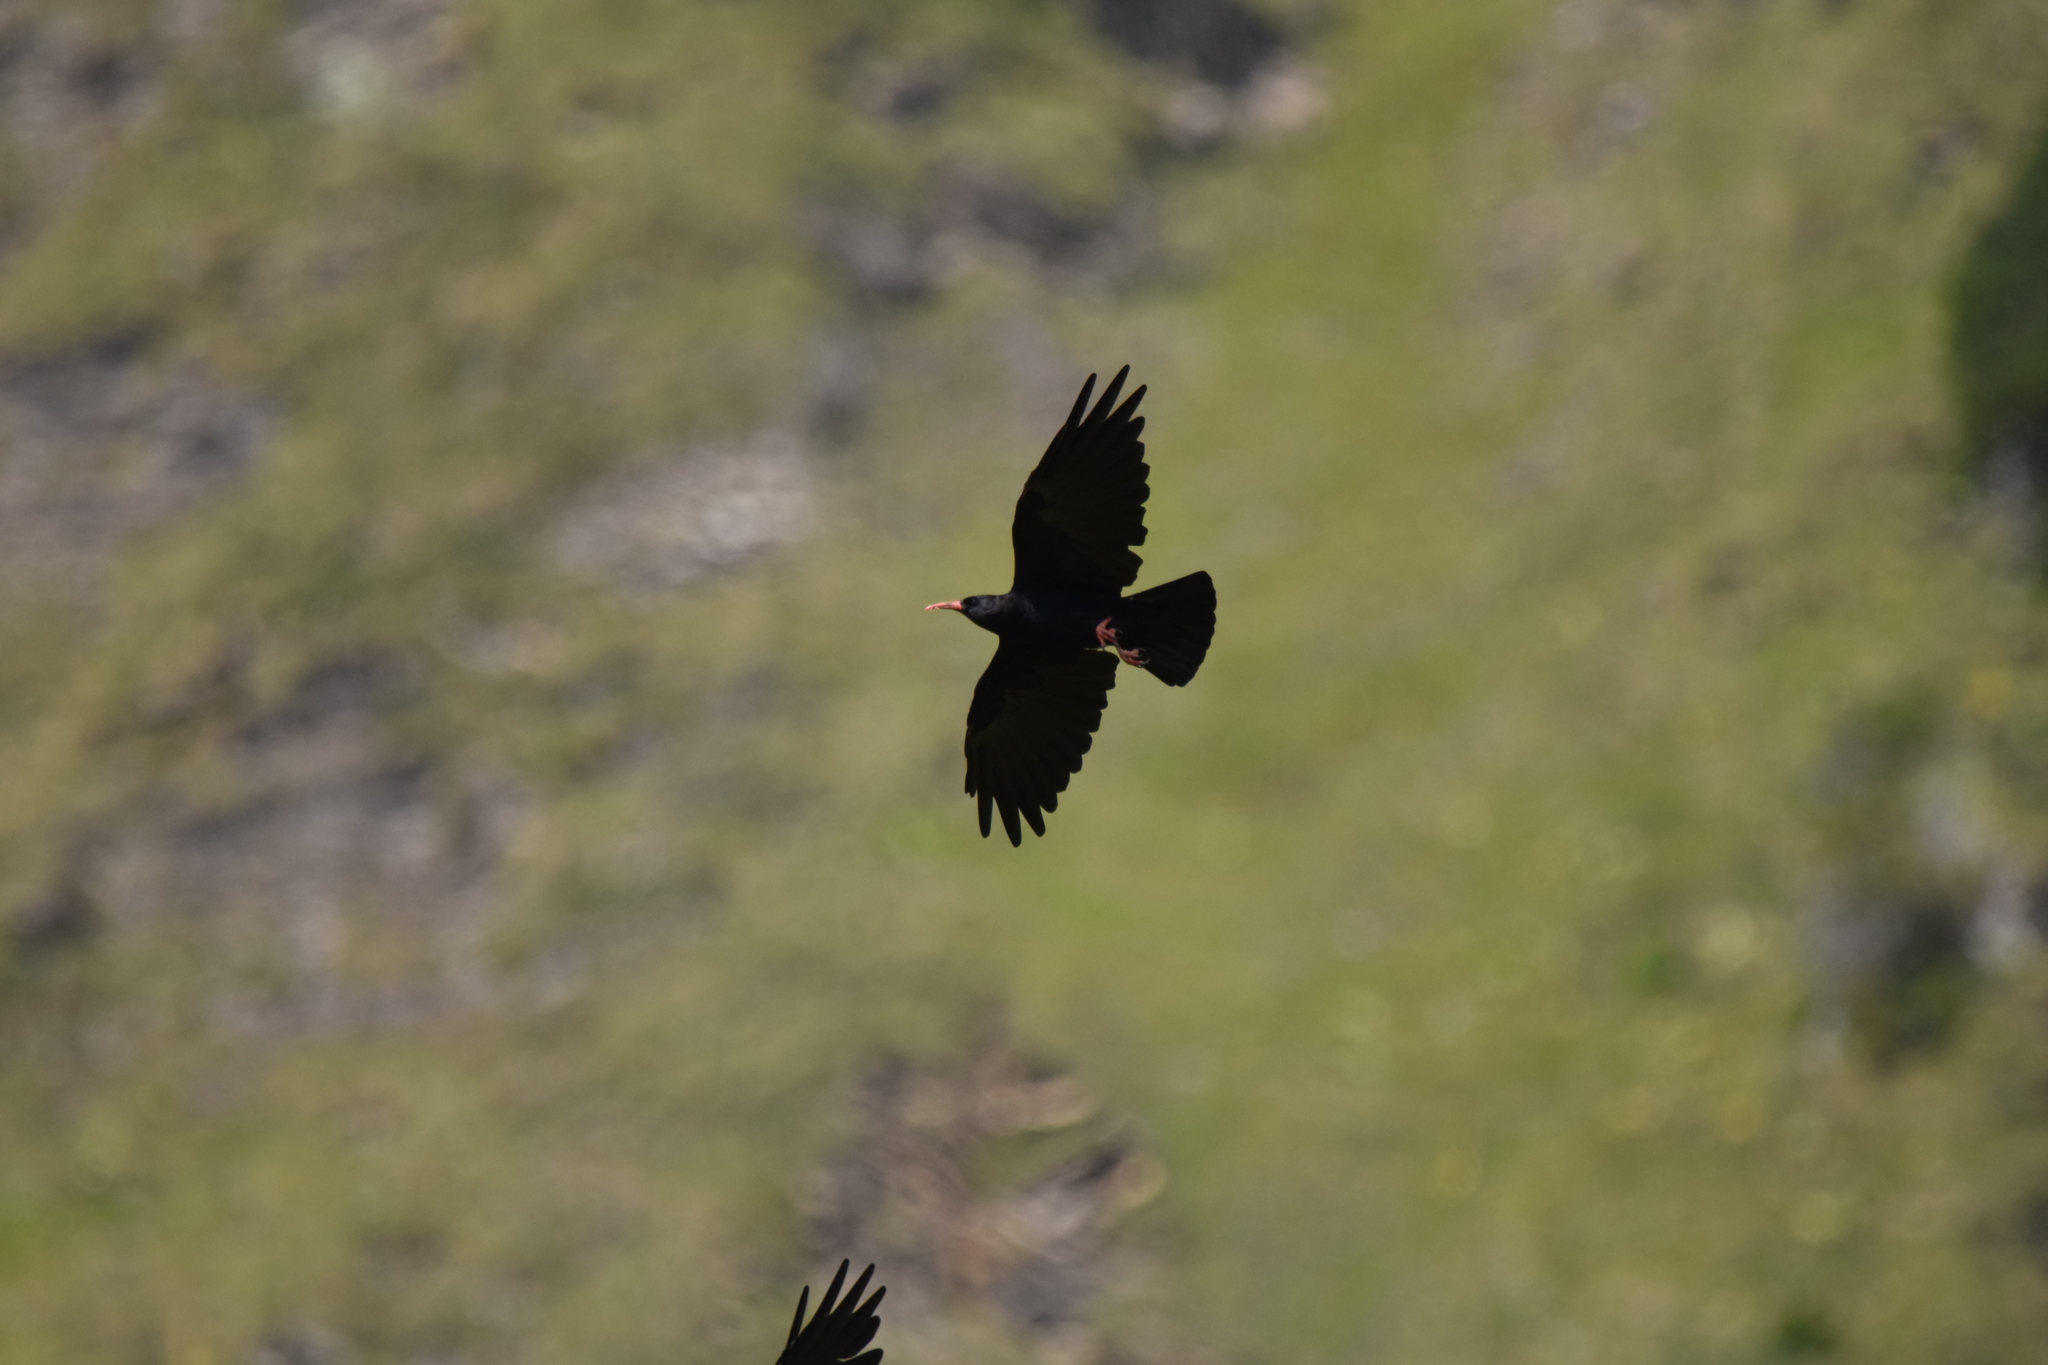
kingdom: Animalia
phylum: Chordata
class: Aves
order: Passeriformes
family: Corvidae
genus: Pyrrhocorax
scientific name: Pyrrhocorax pyrrhocorax
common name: Red-billed chough
